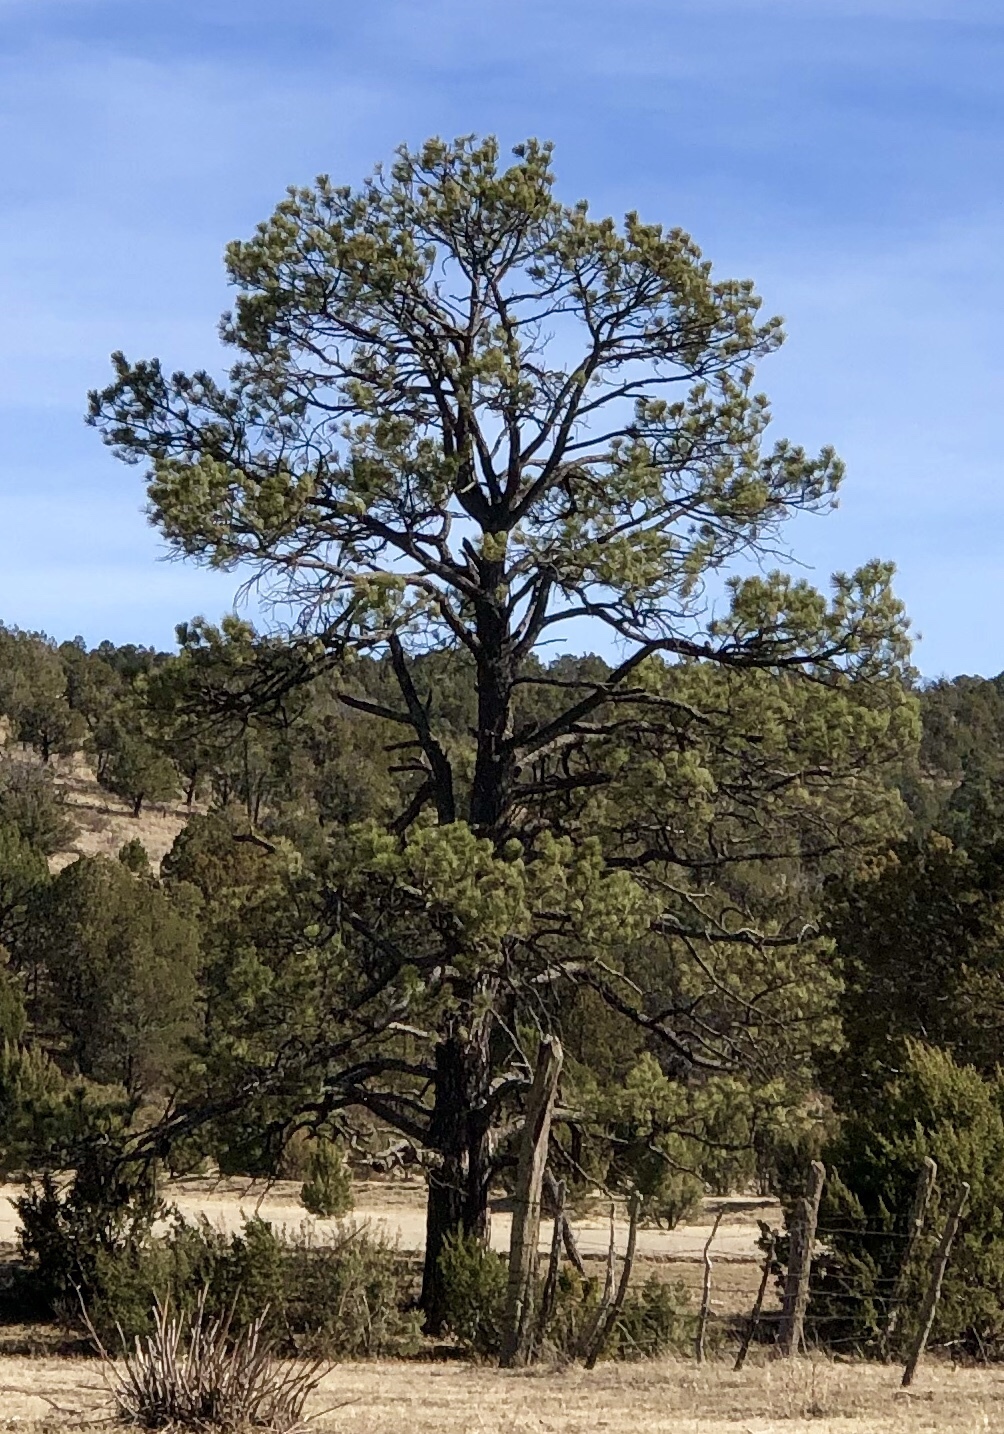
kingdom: Plantae
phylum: Tracheophyta
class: Pinopsida
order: Pinales
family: Pinaceae
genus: Pinus
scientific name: Pinus ponderosa
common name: Western yellow-pine
